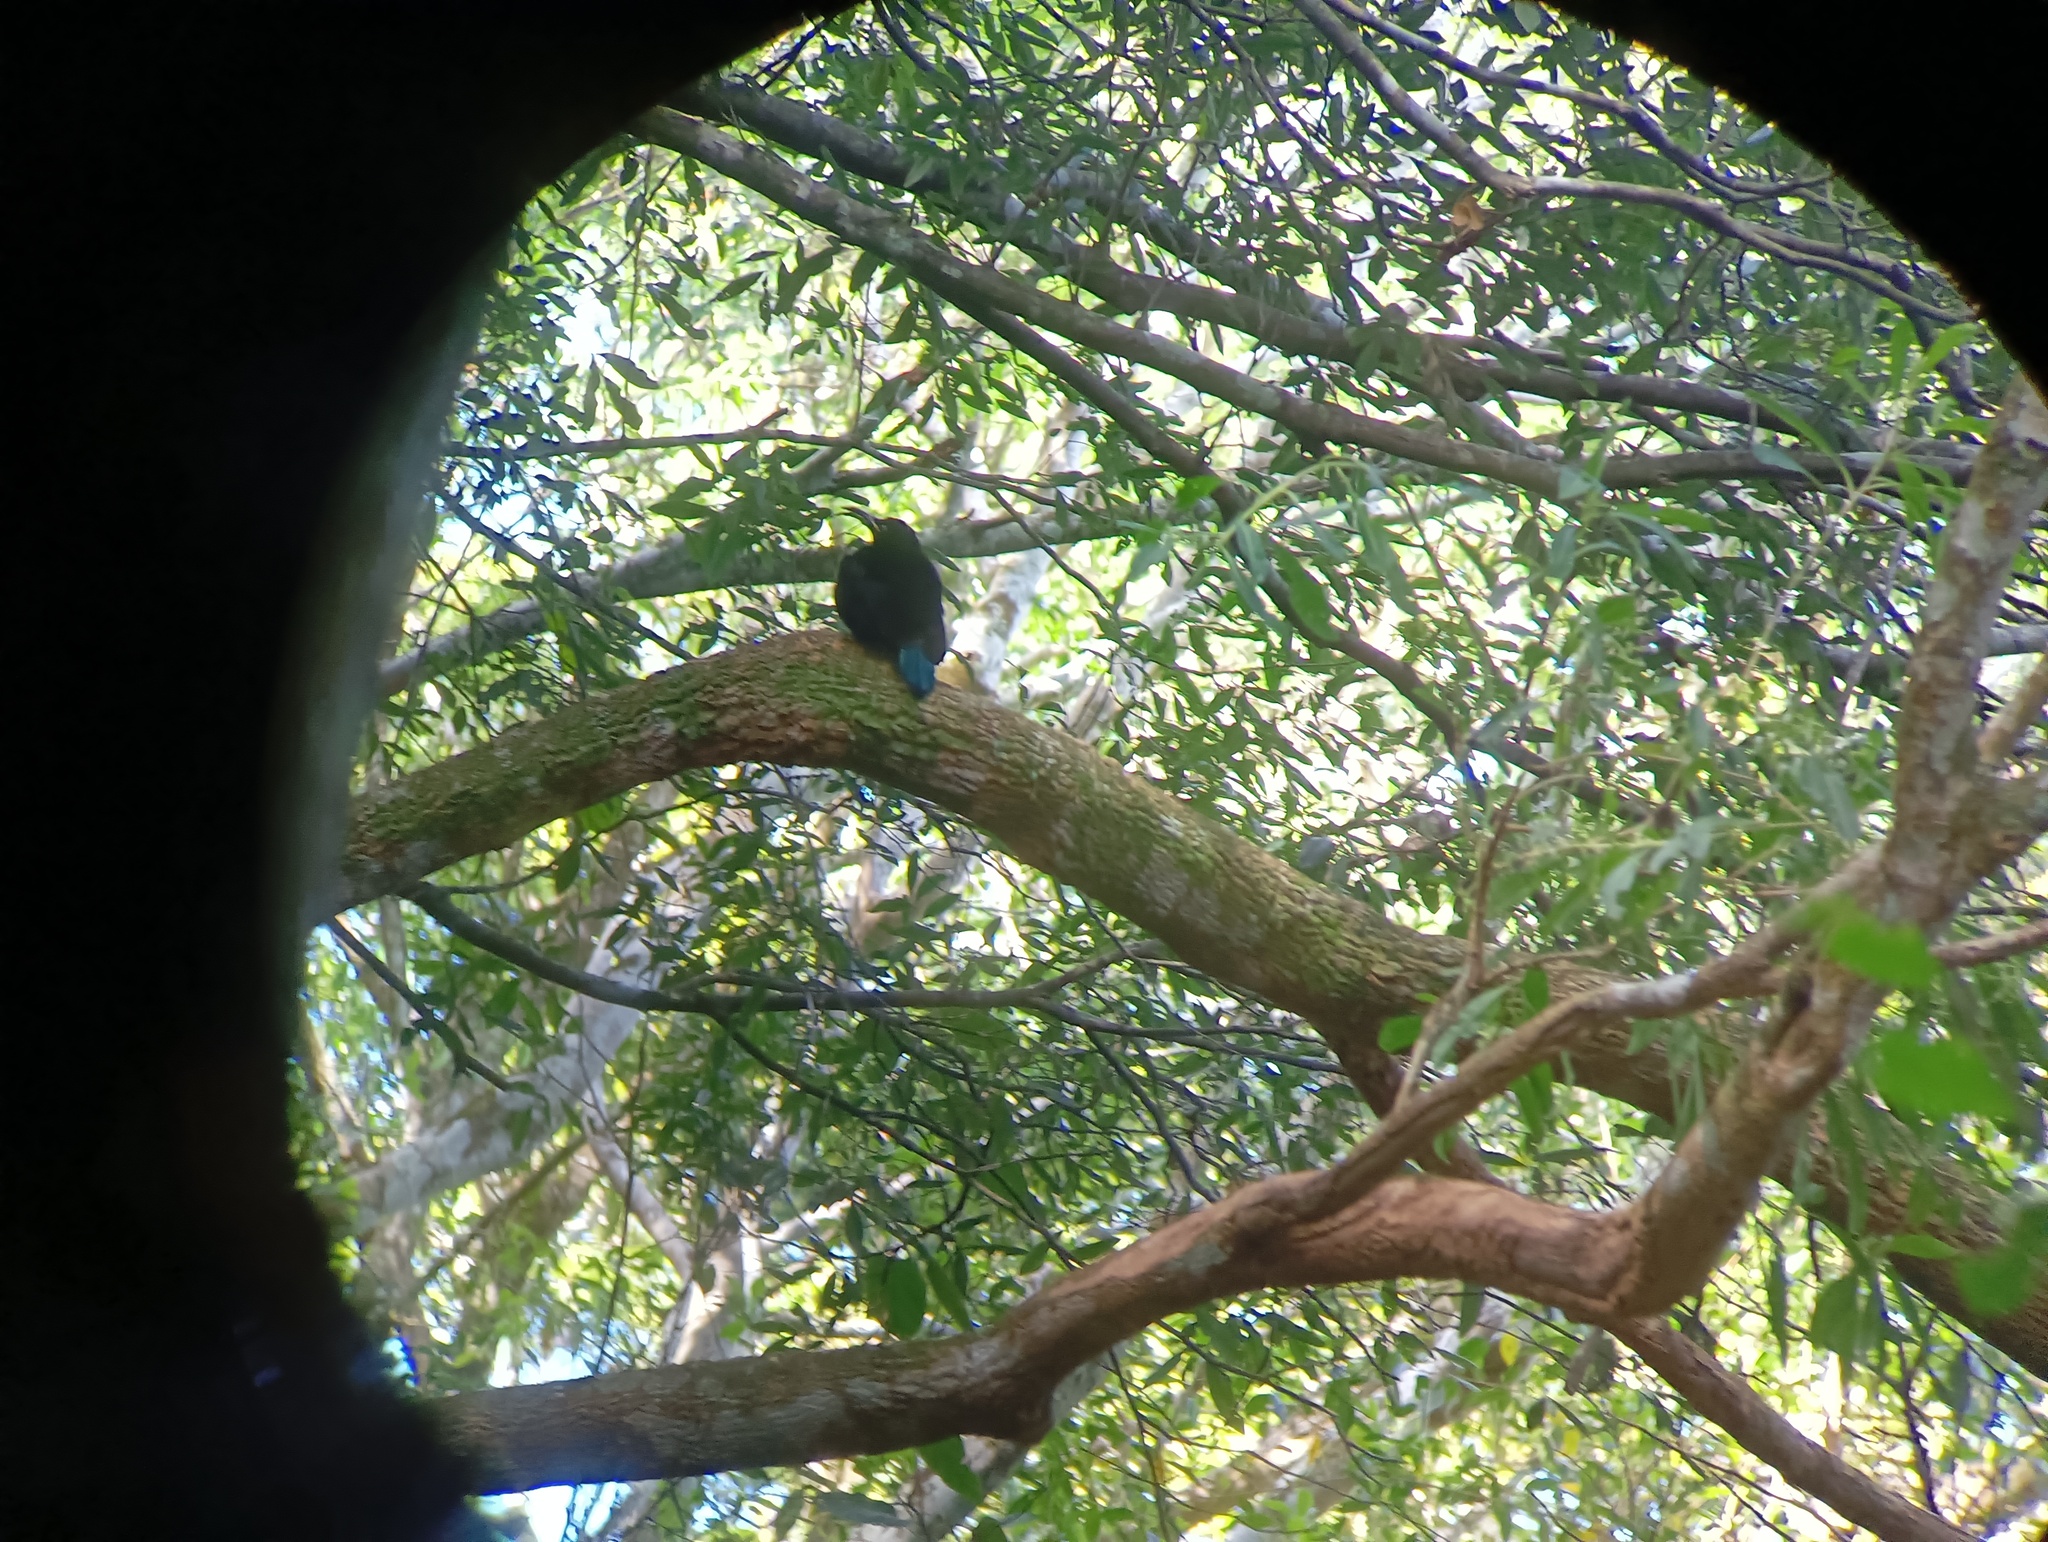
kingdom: Animalia
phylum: Chordata
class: Aves
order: Passeriformes
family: Paradisaeidae
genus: Ptiloris
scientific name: Ptiloris paradiseus
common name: Paradise riflebird
